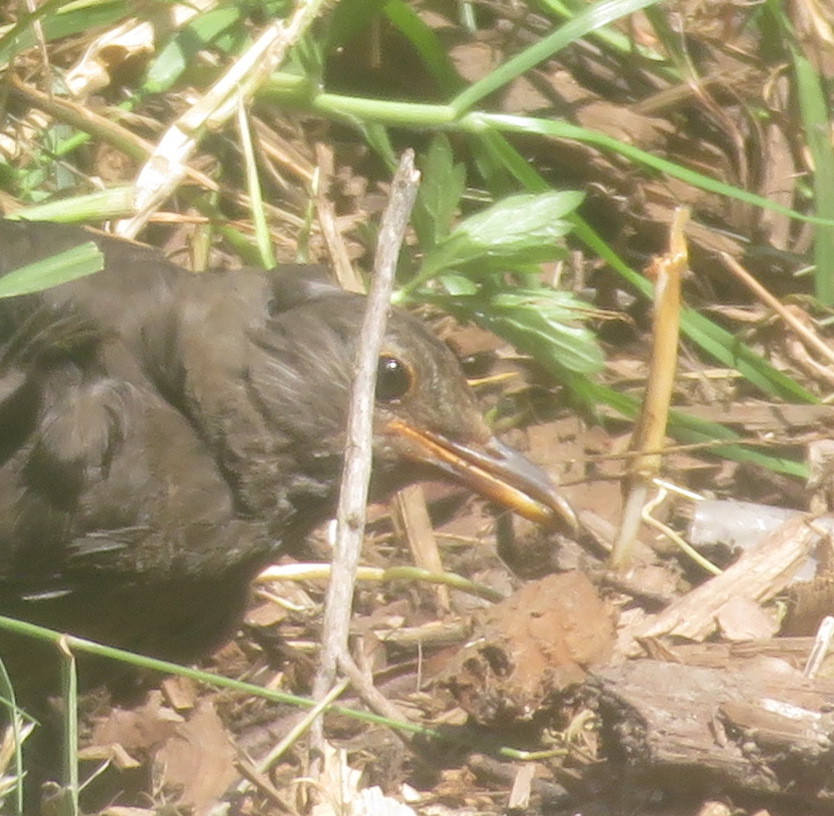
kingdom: Animalia
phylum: Chordata
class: Aves
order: Passeriformes
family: Turdidae
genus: Turdus
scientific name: Turdus merula
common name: Common blackbird
